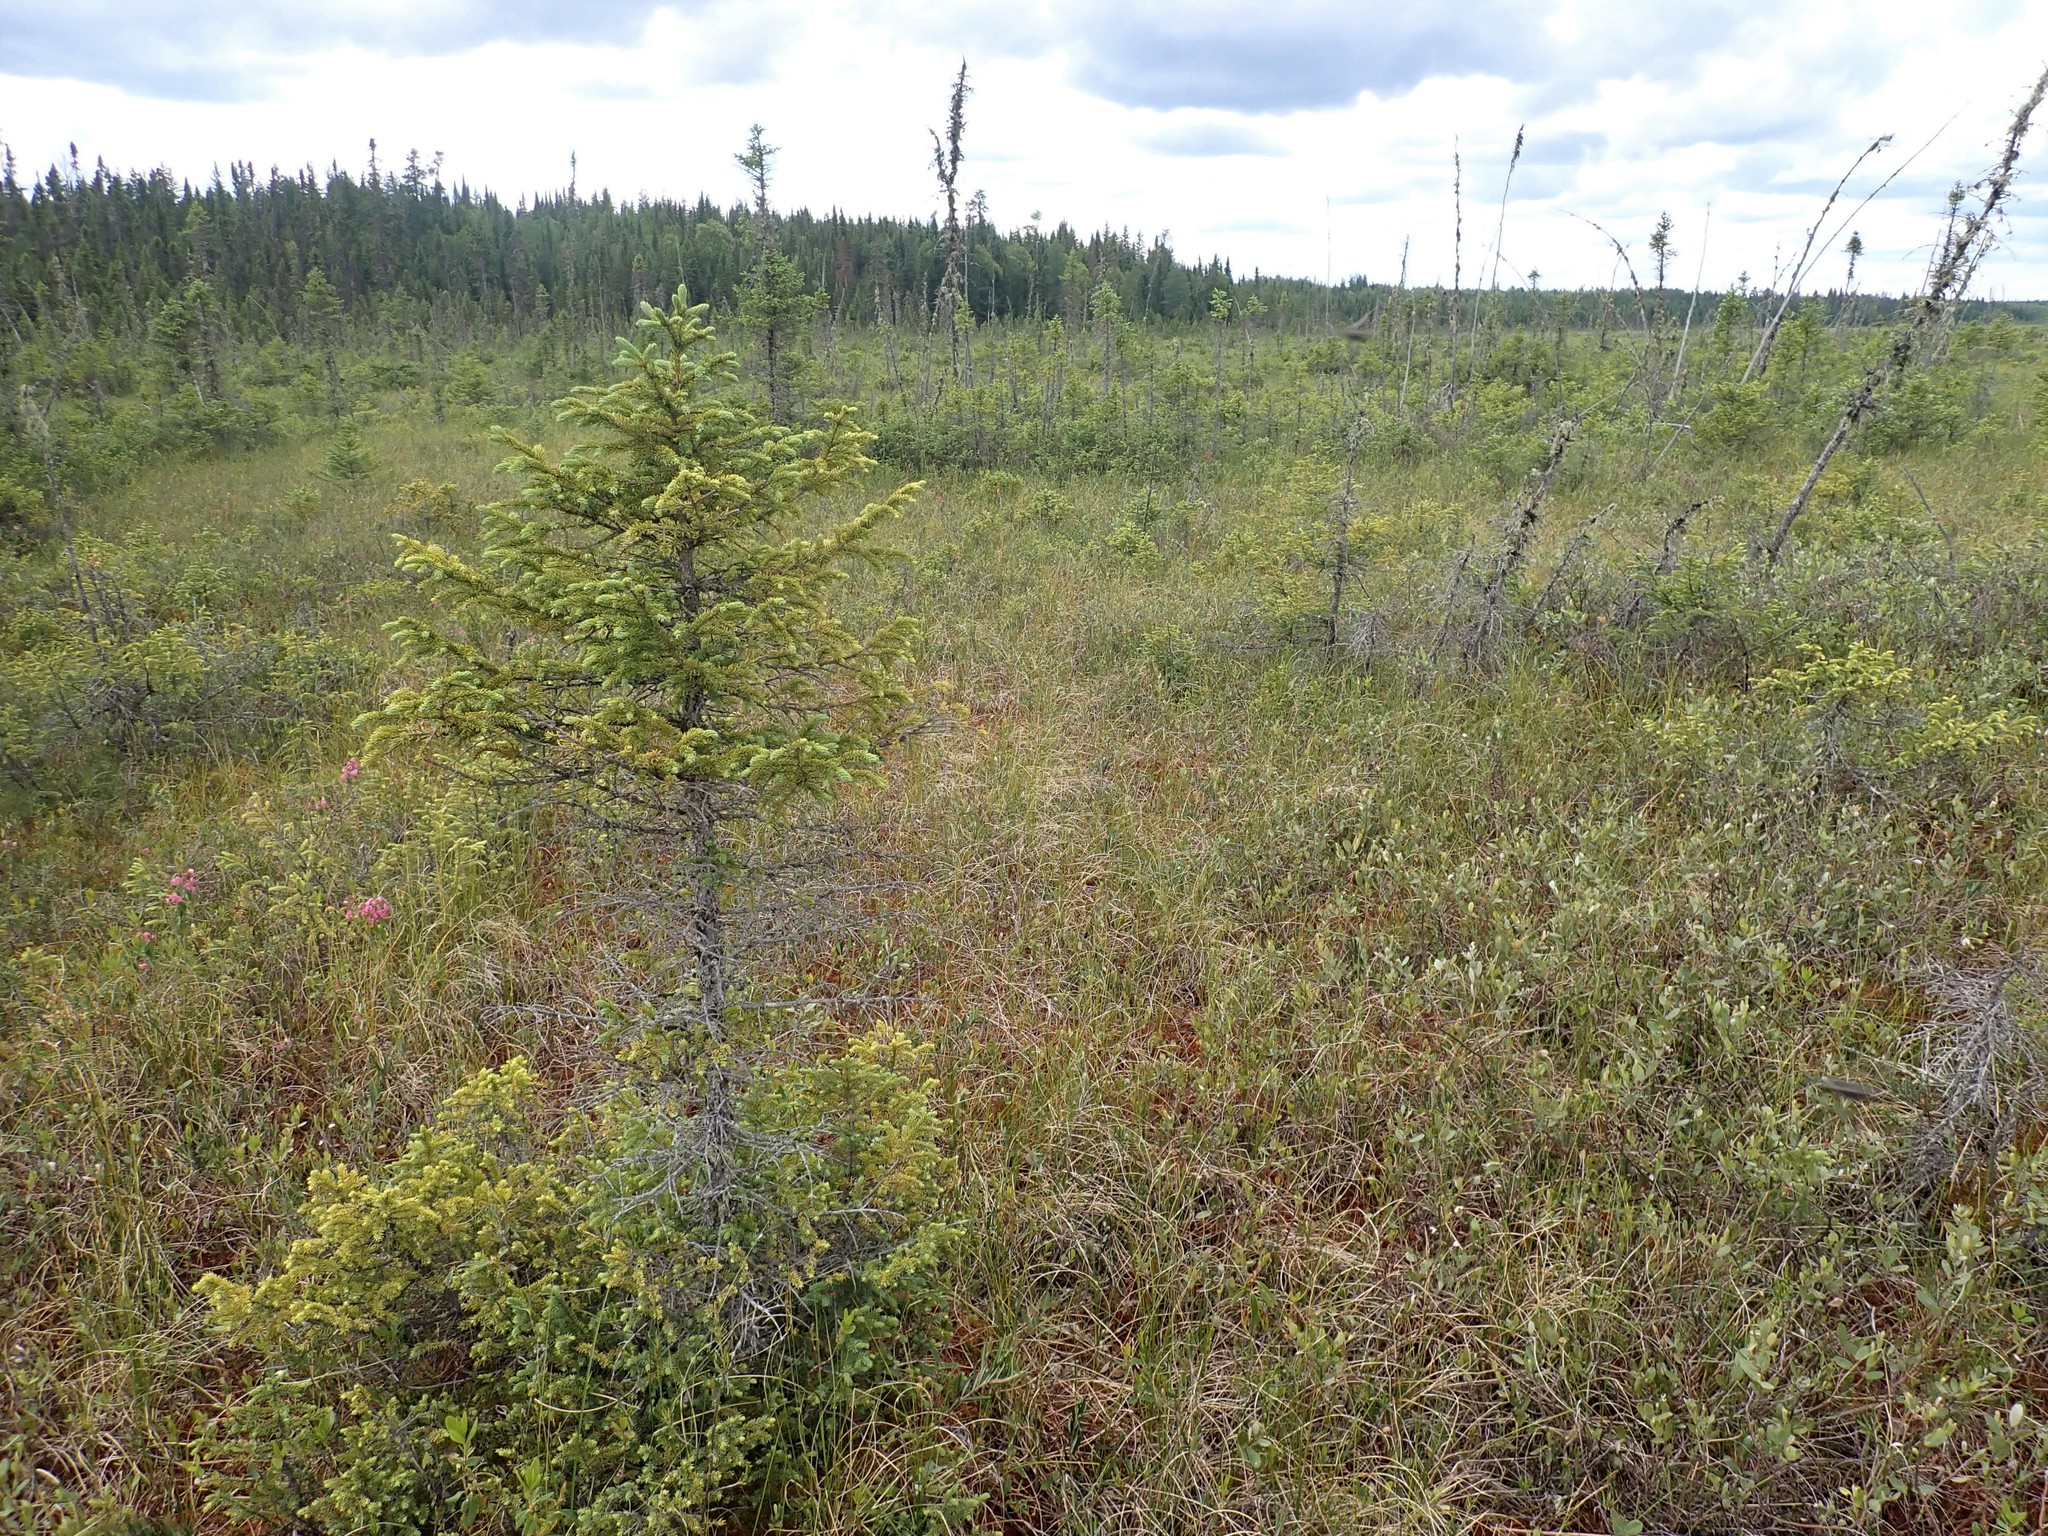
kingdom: Plantae
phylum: Tracheophyta
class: Pinopsida
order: Pinales
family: Pinaceae
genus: Picea
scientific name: Picea mariana
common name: Black spruce
